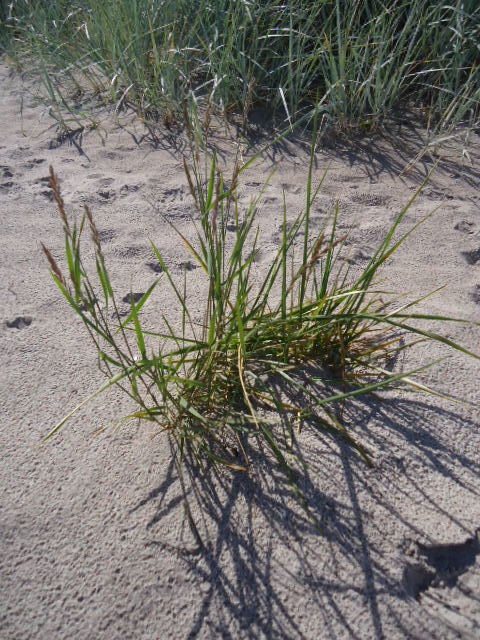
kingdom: Plantae
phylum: Tracheophyta
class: Liliopsida
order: Poales
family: Poaceae
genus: Elymus
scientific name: Elymus repens
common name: Quackgrass
